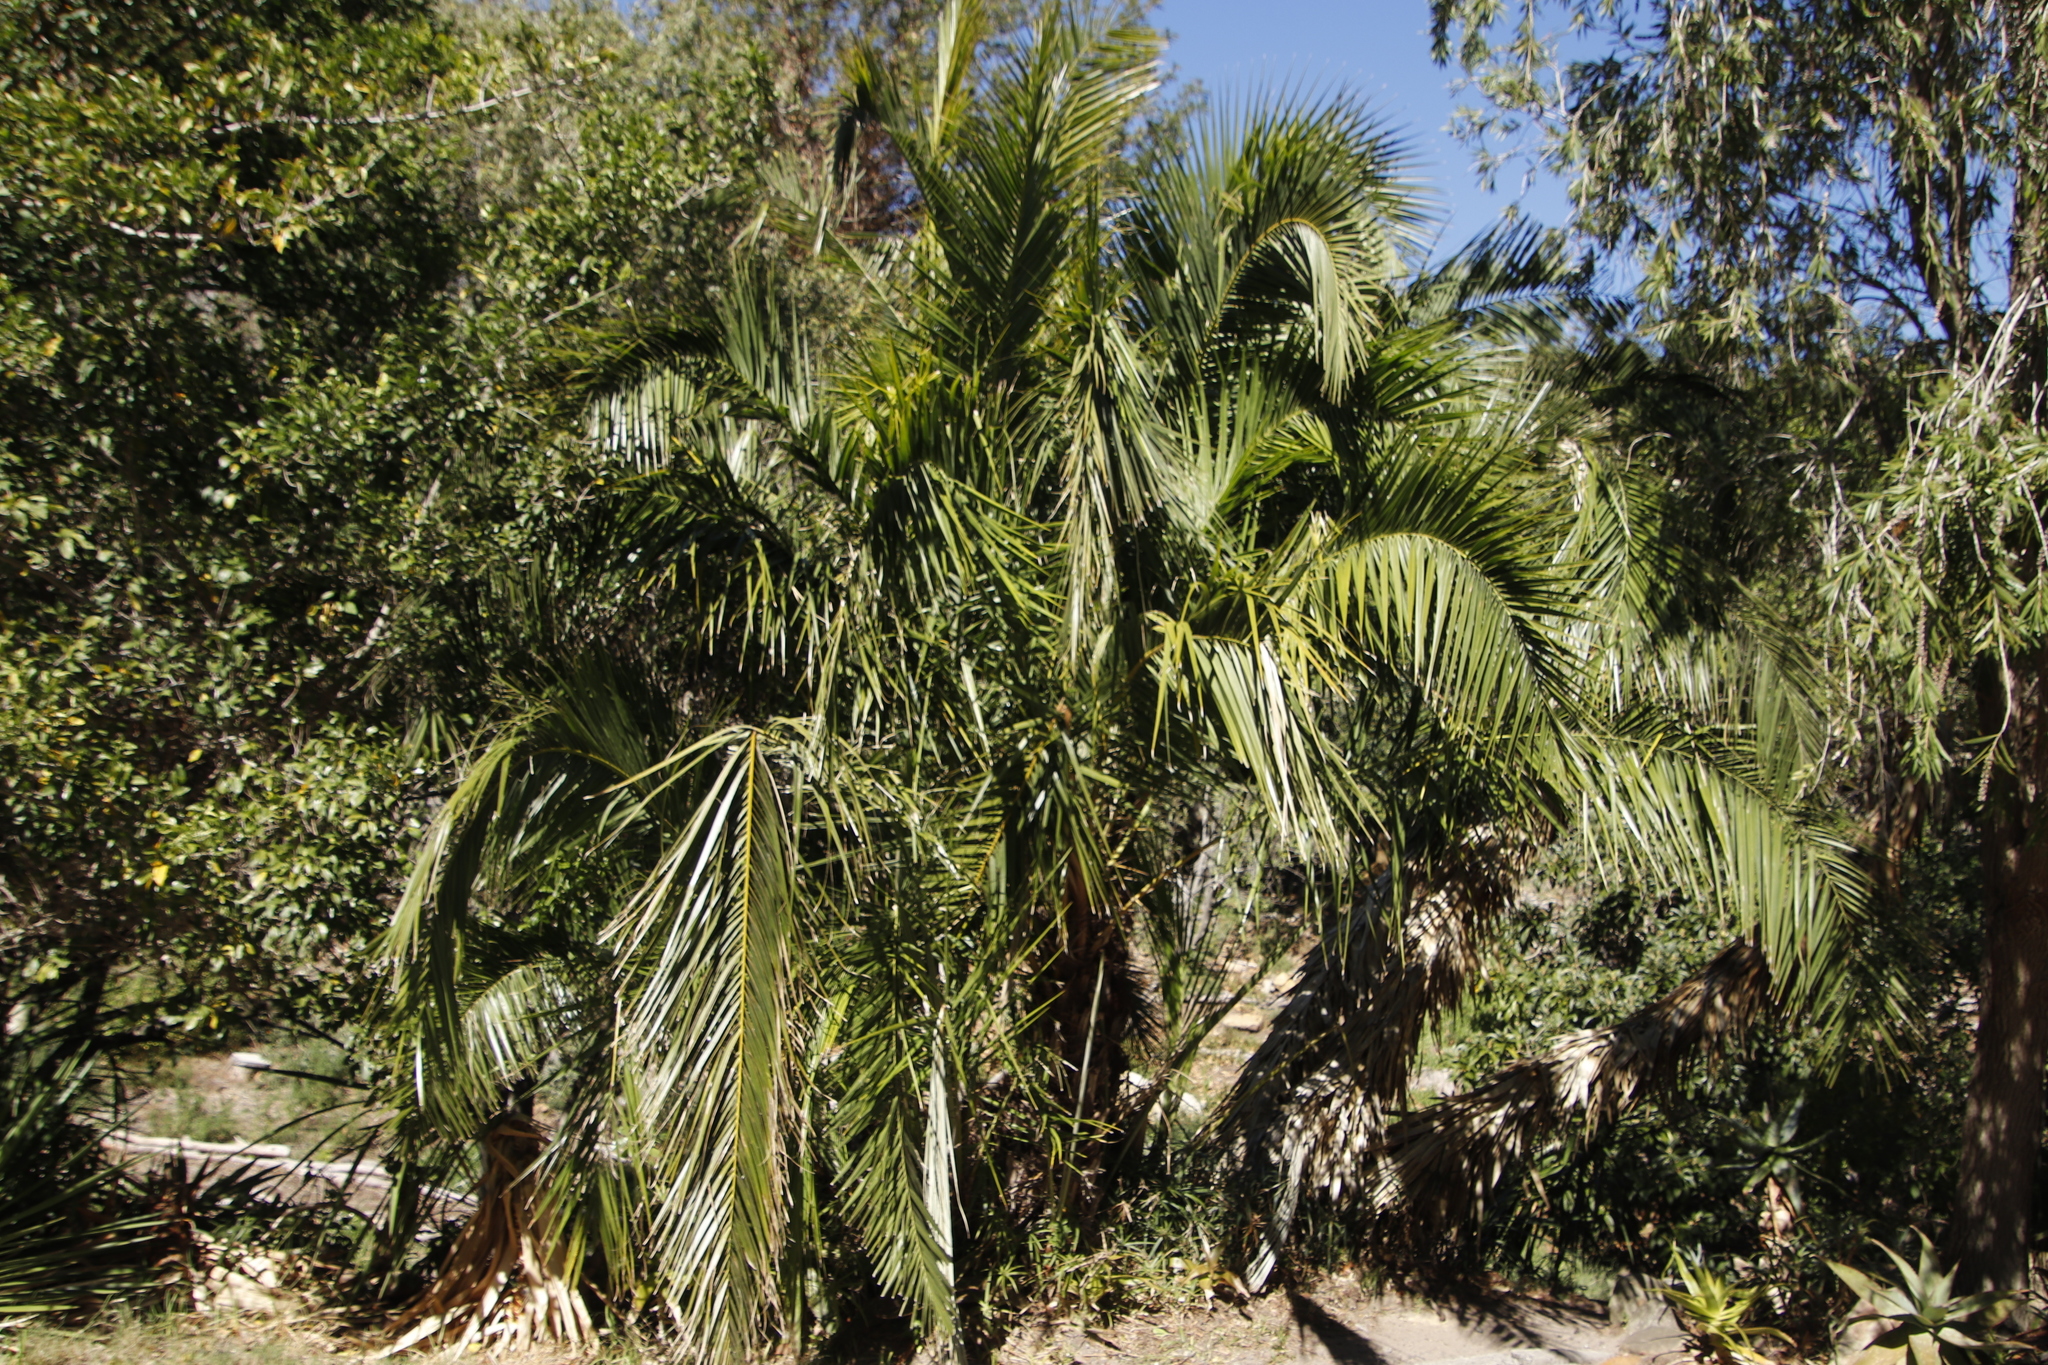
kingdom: Plantae
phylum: Tracheophyta
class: Liliopsida
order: Arecales
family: Arecaceae
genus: Phoenix
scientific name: Phoenix reclinata
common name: Senegal date palm
